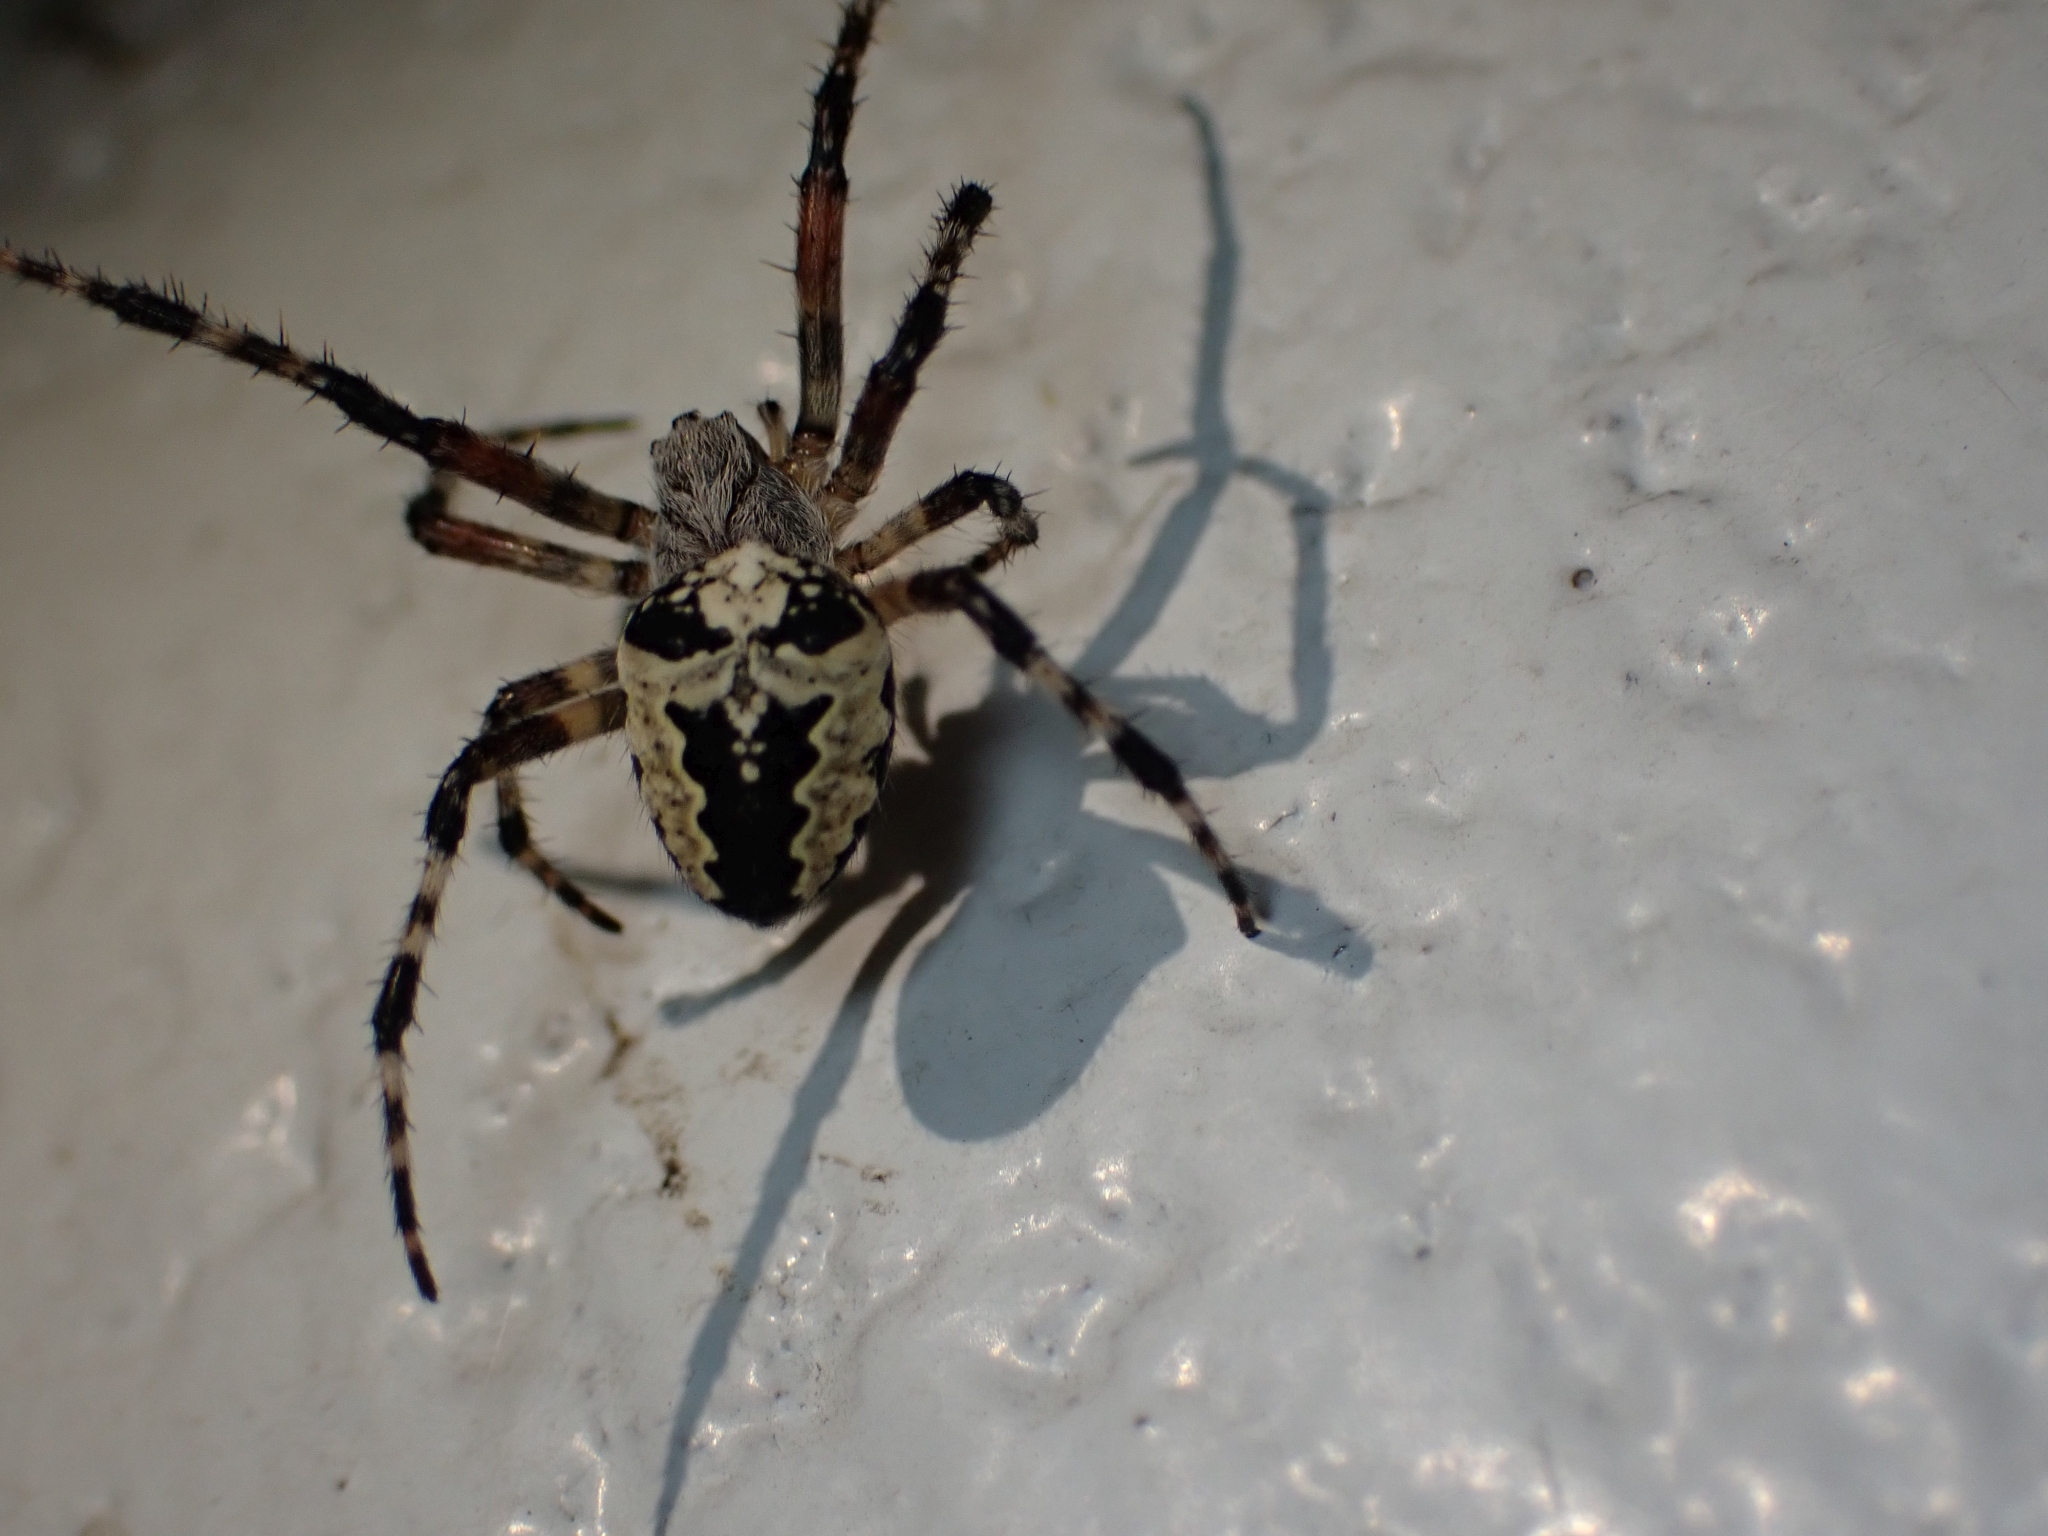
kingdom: Animalia
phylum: Arthropoda
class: Arachnida
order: Araneae
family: Araneidae
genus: Araneus
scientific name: Araneus nordmanni
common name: Nordmann's orbweaver
